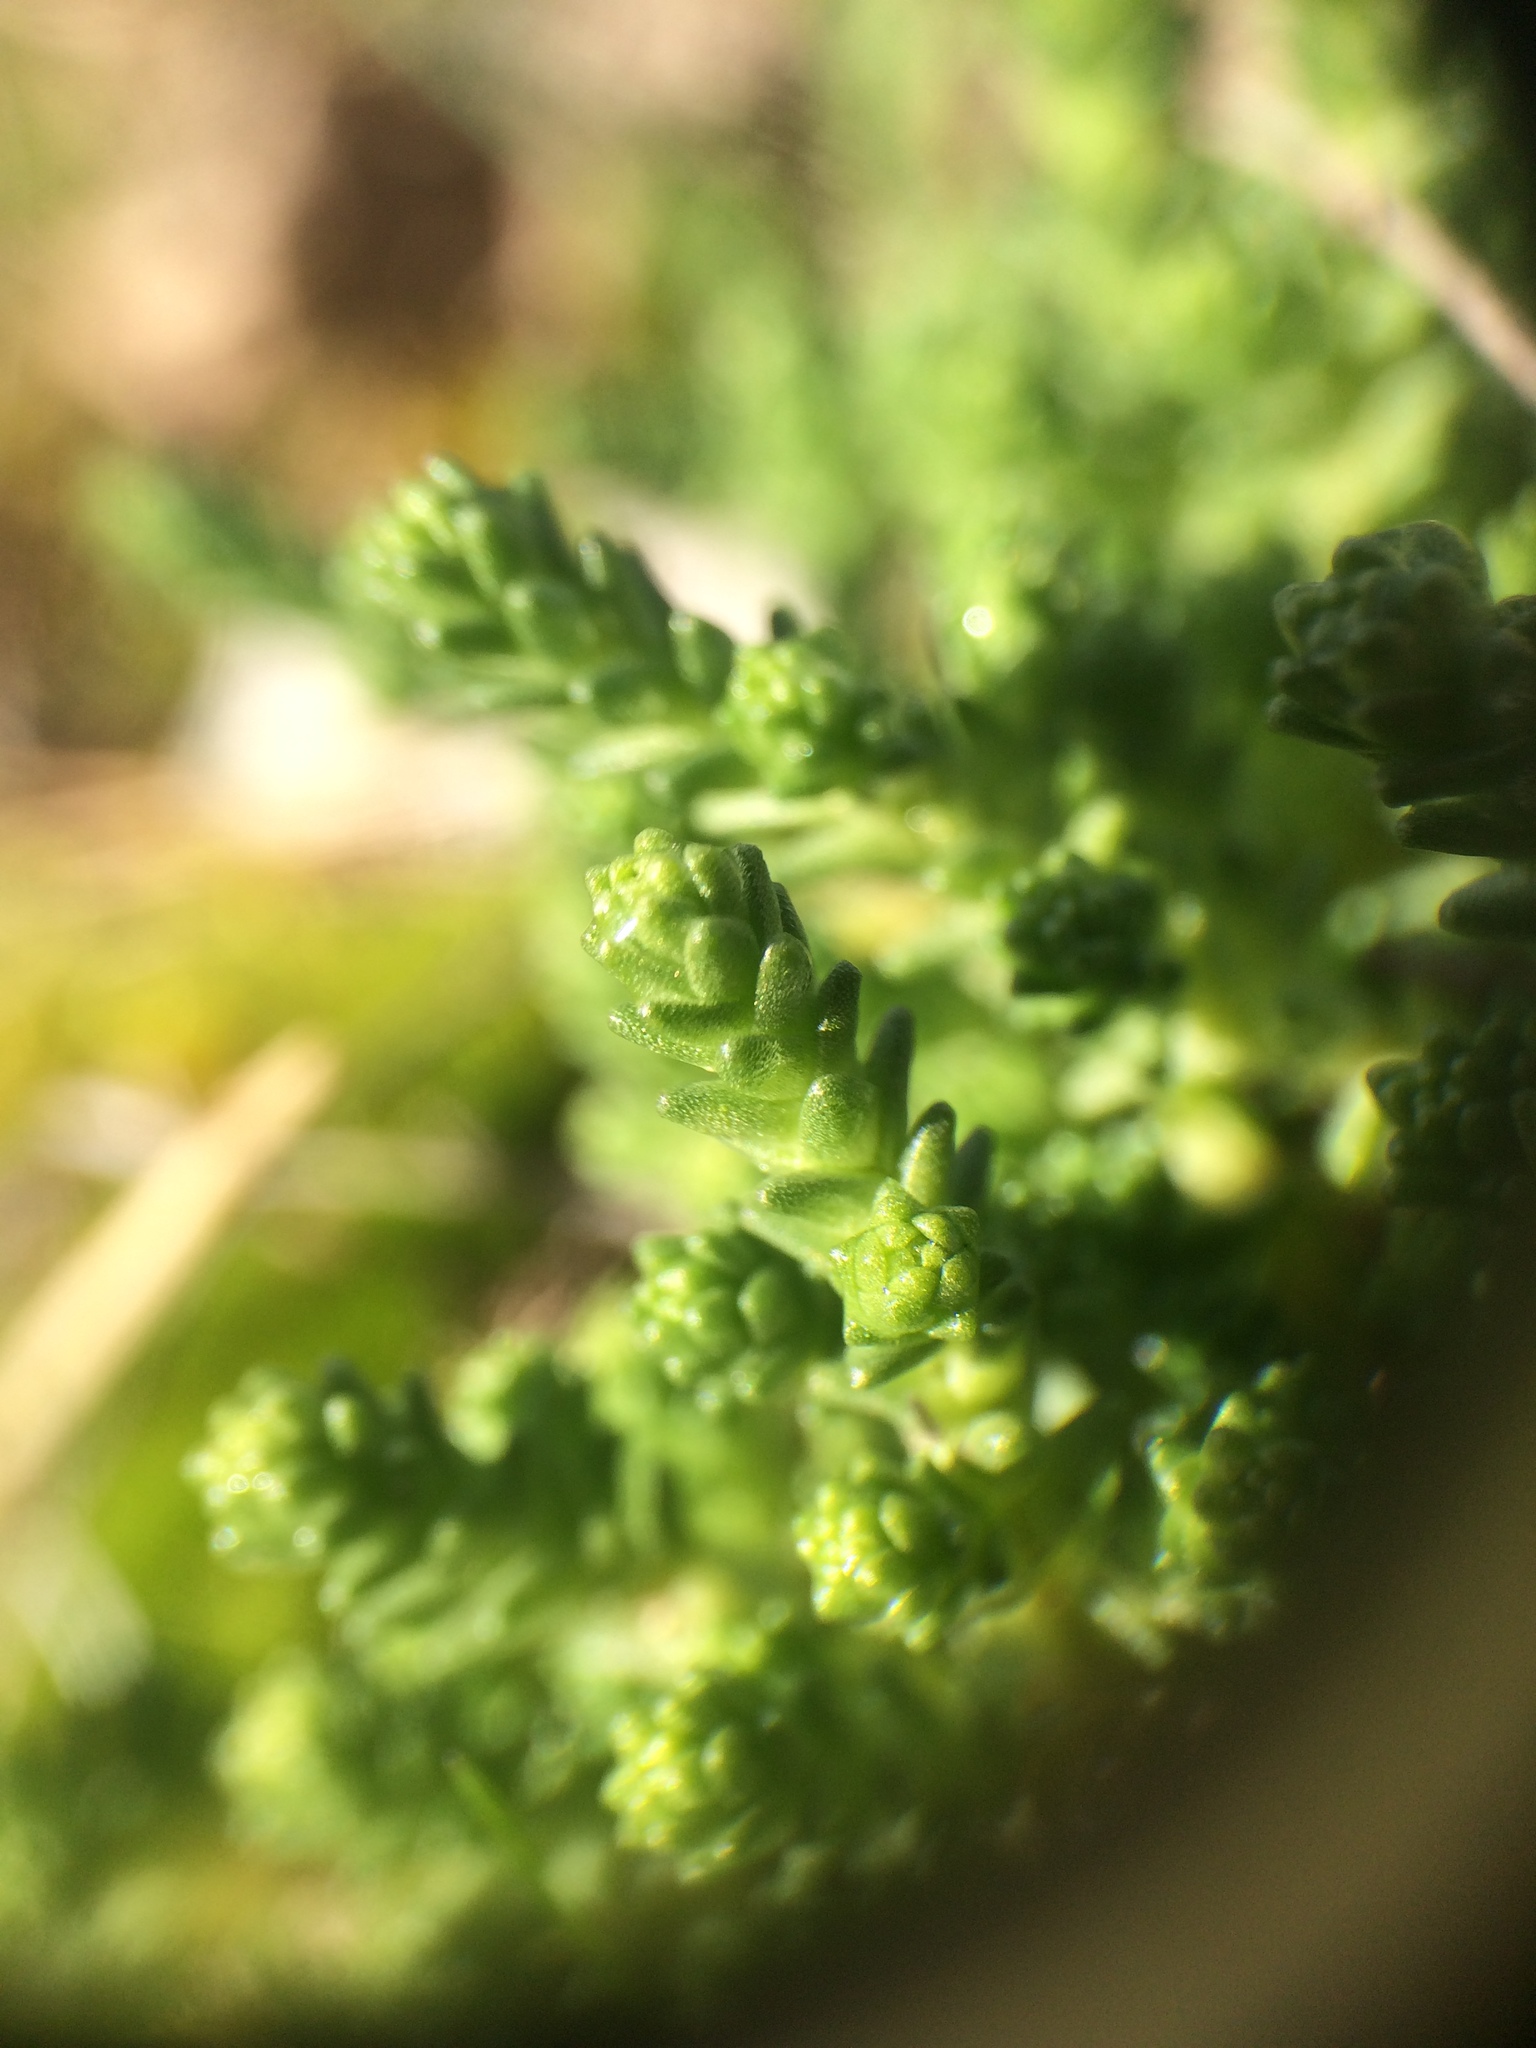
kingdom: Plantae
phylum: Tracheophyta
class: Magnoliopsida
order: Saxifragales
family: Crassulaceae
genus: Sedum
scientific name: Sedum acre
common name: Biting stonecrop
